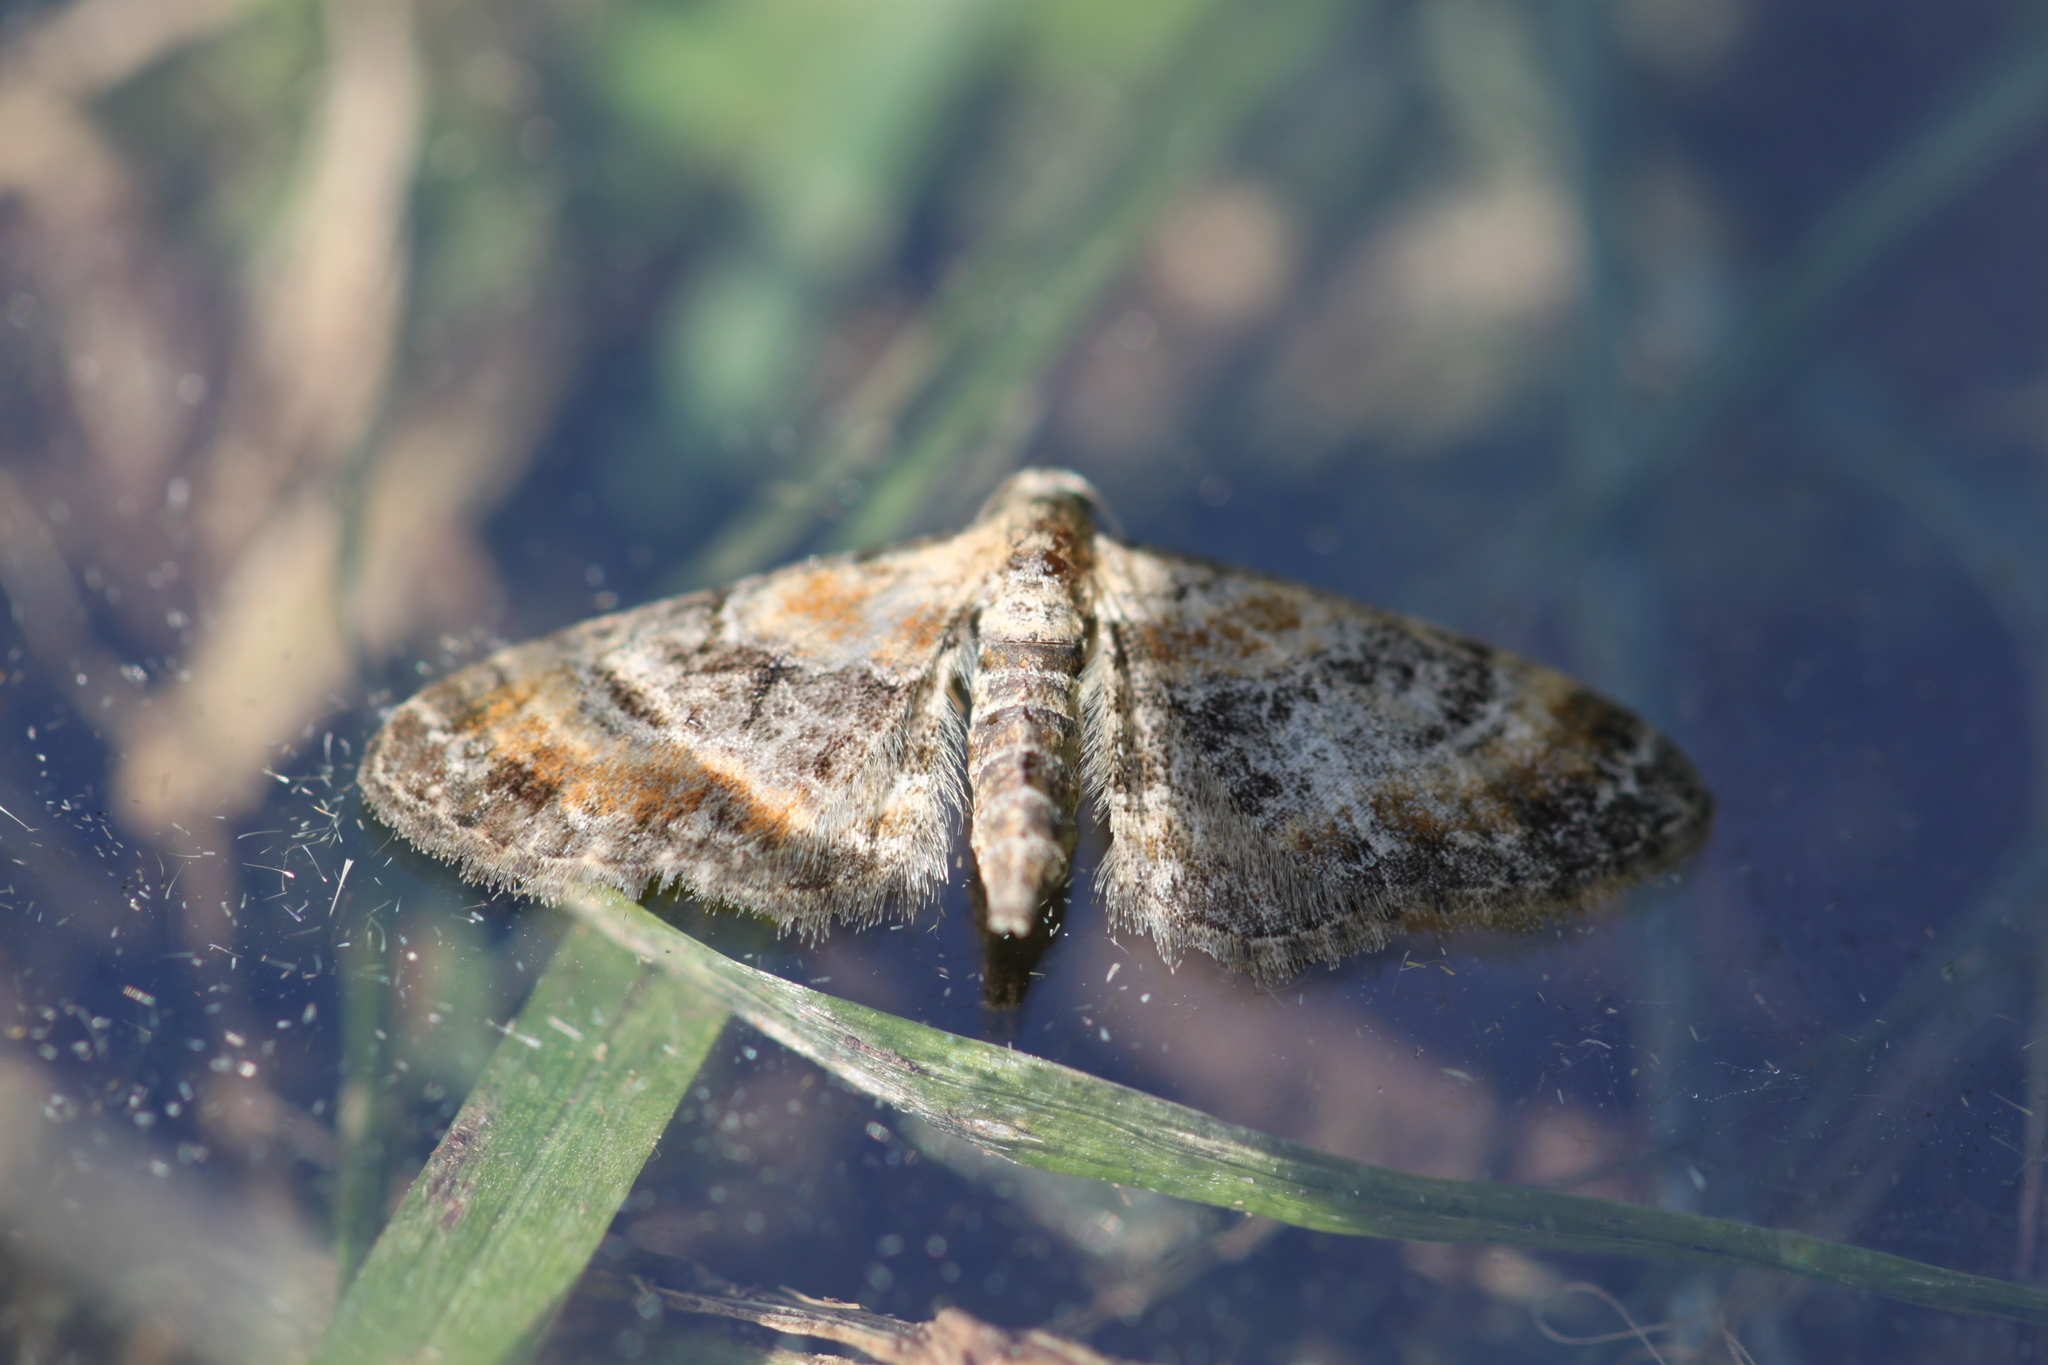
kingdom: Animalia
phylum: Arthropoda
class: Insecta
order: Lepidoptera
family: Geometridae
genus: Eupithecia
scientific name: Eupithecia linariata
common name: Toadflax pug
